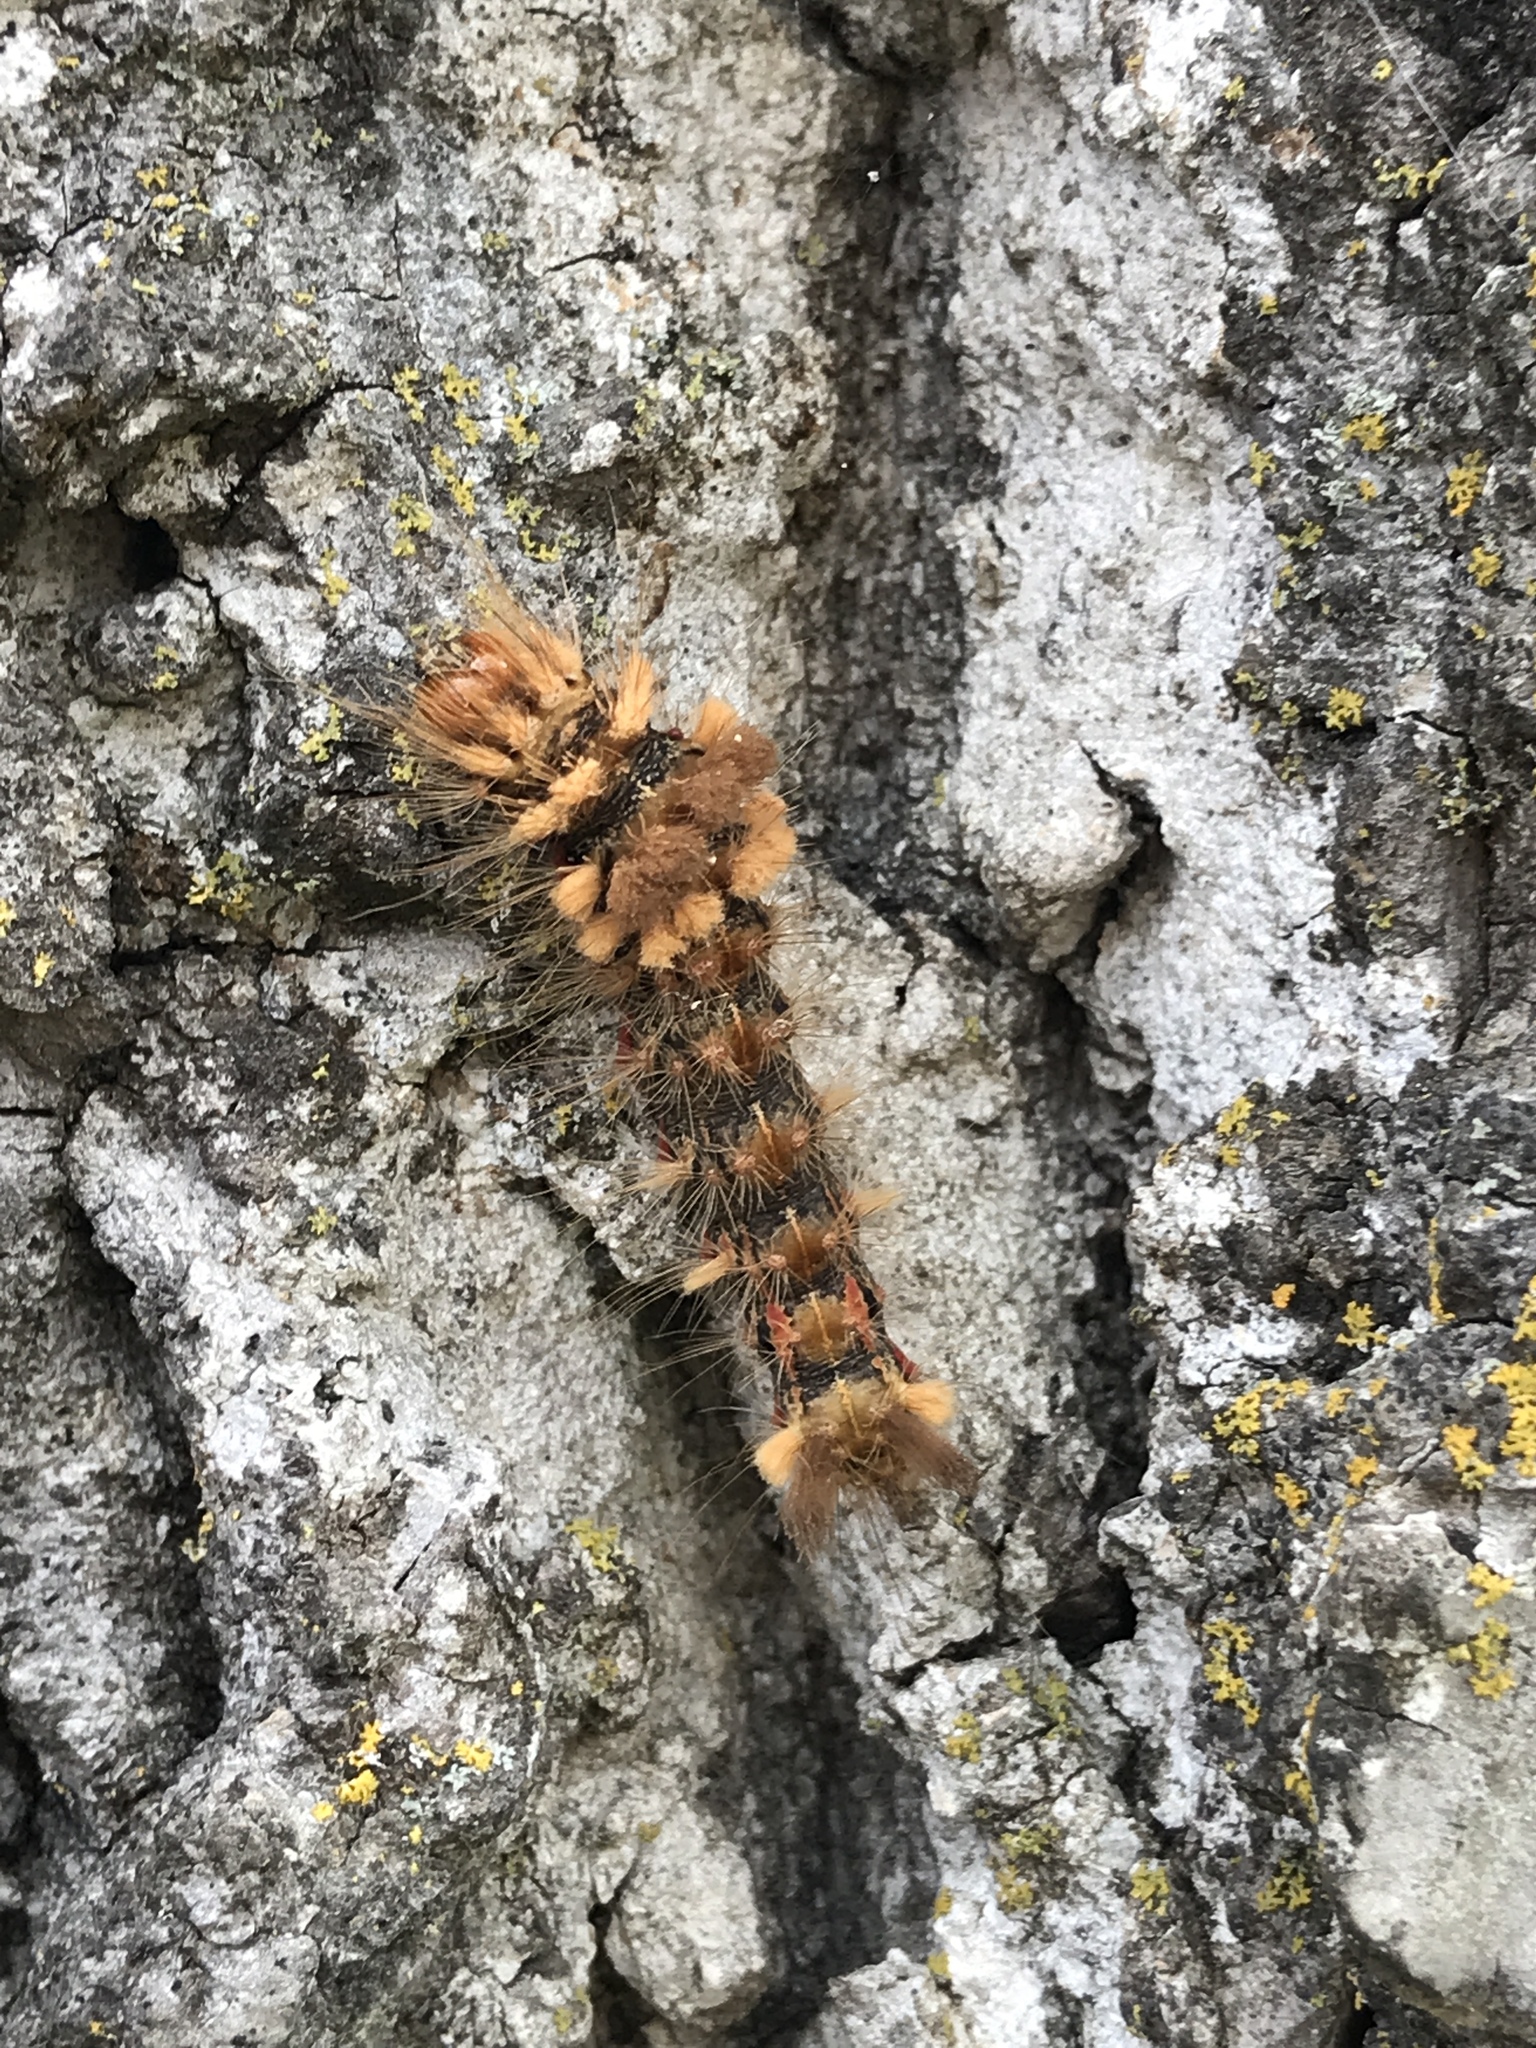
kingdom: Animalia
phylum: Arthropoda
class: Insecta
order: Lepidoptera
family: Noctuidae
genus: Acronicta
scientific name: Acronicta impleta
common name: Powdered dagger
